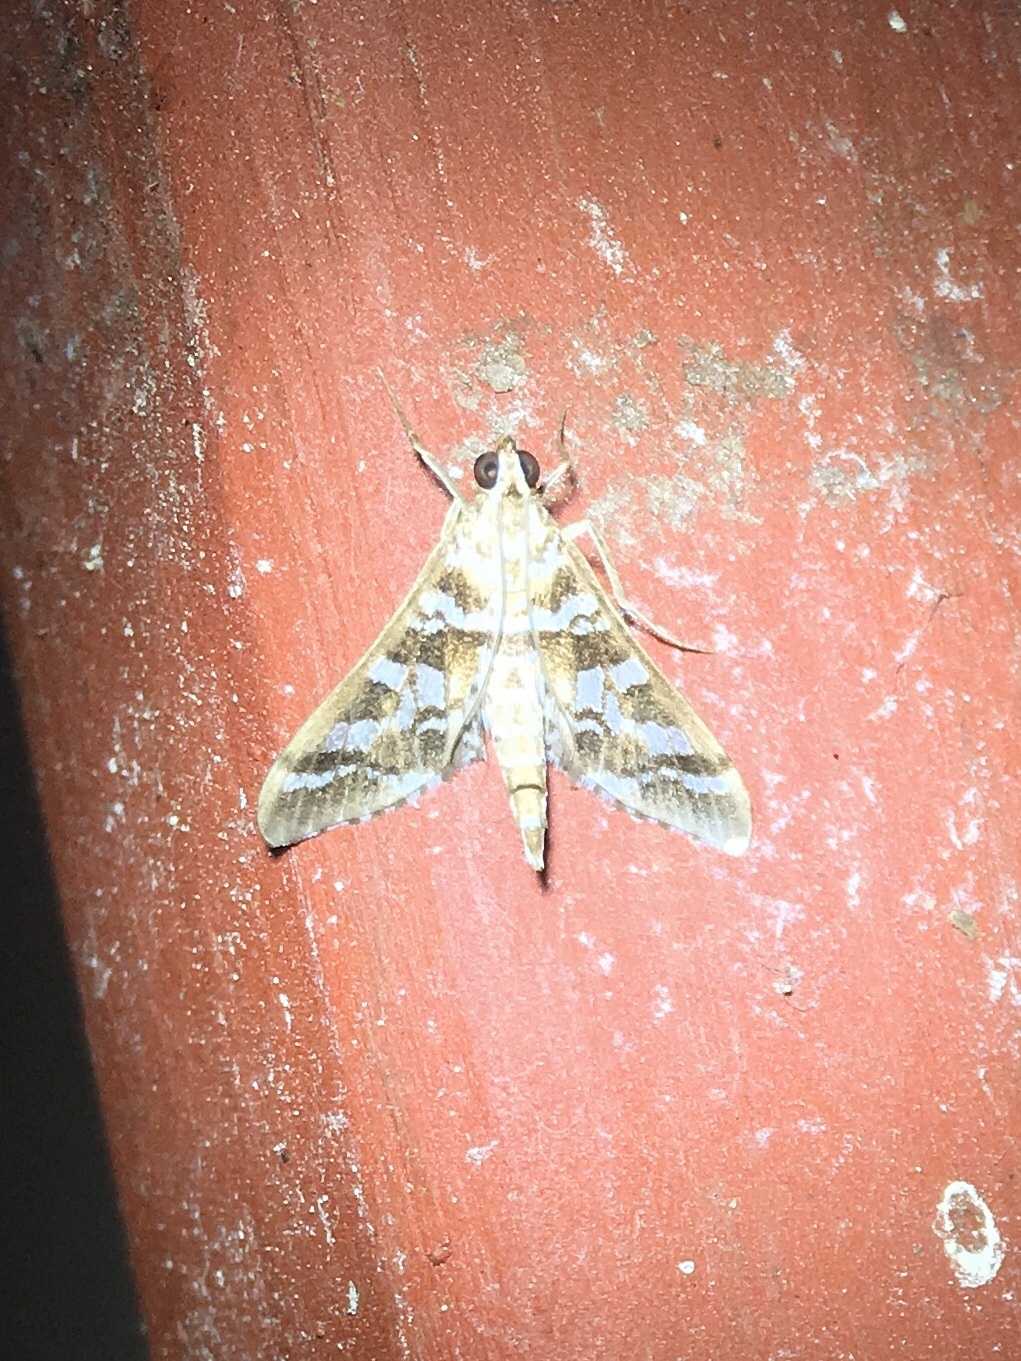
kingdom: Animalia
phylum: Arthropoda
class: Insecta
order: Lepidoptera
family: Crambidae
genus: Epipagis
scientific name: Epipagis forsythae
